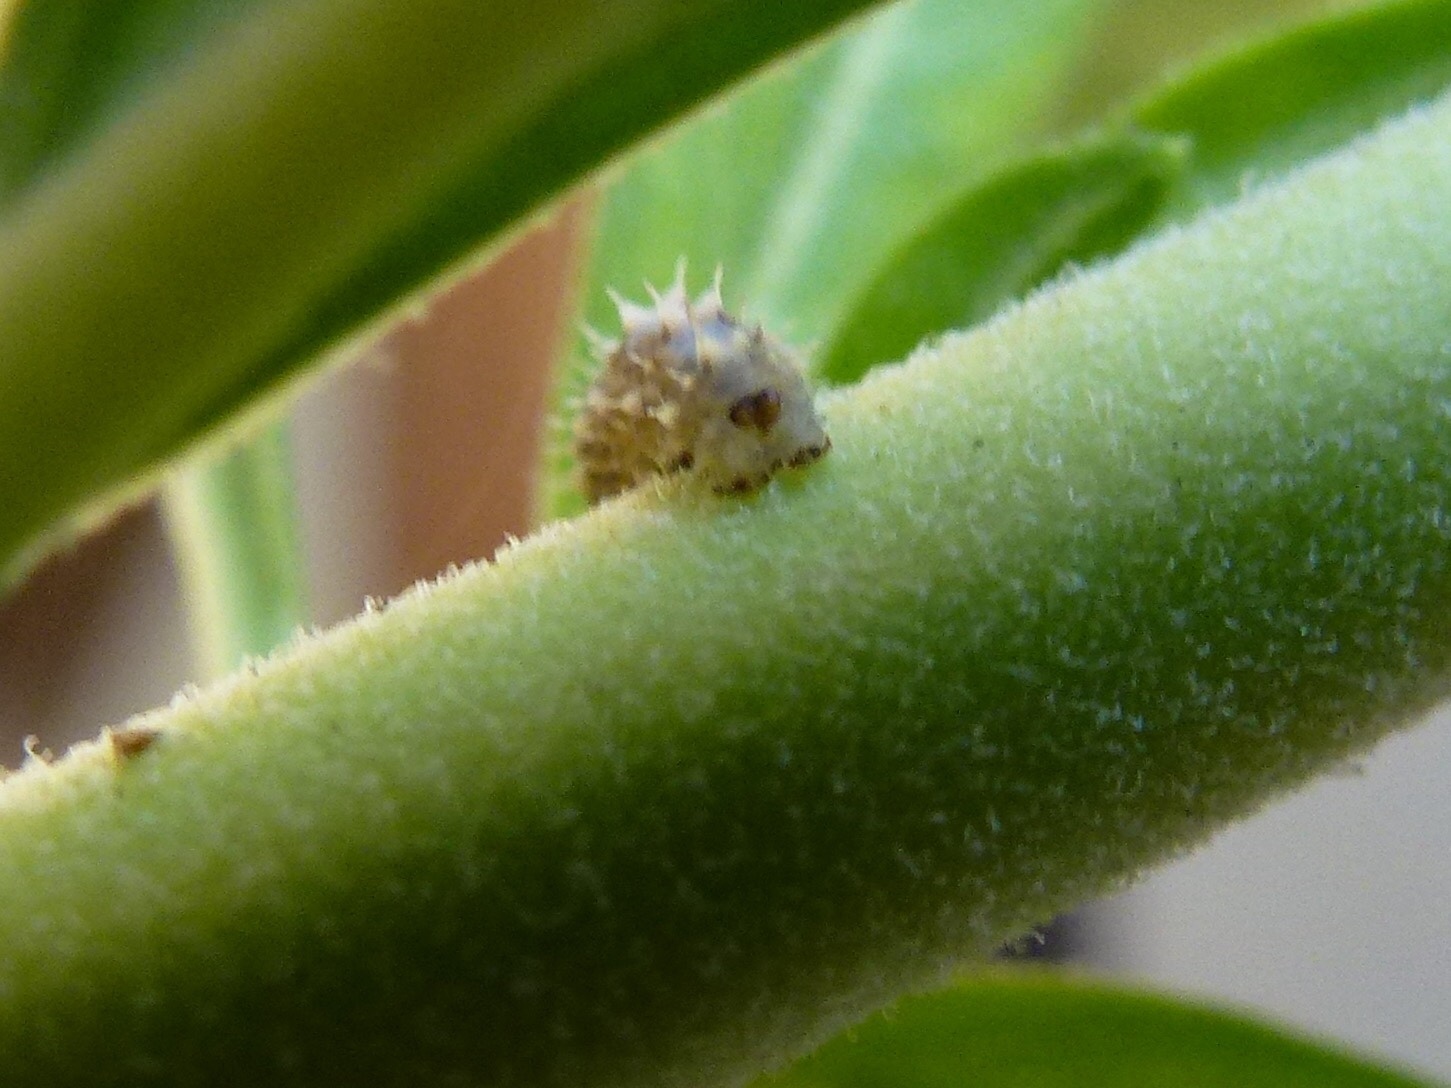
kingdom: Animalia
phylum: Arthropoda
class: Insecta
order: Diptera
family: Syrphidae
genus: Dioprosopa
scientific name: Dioprosopa clavatus
